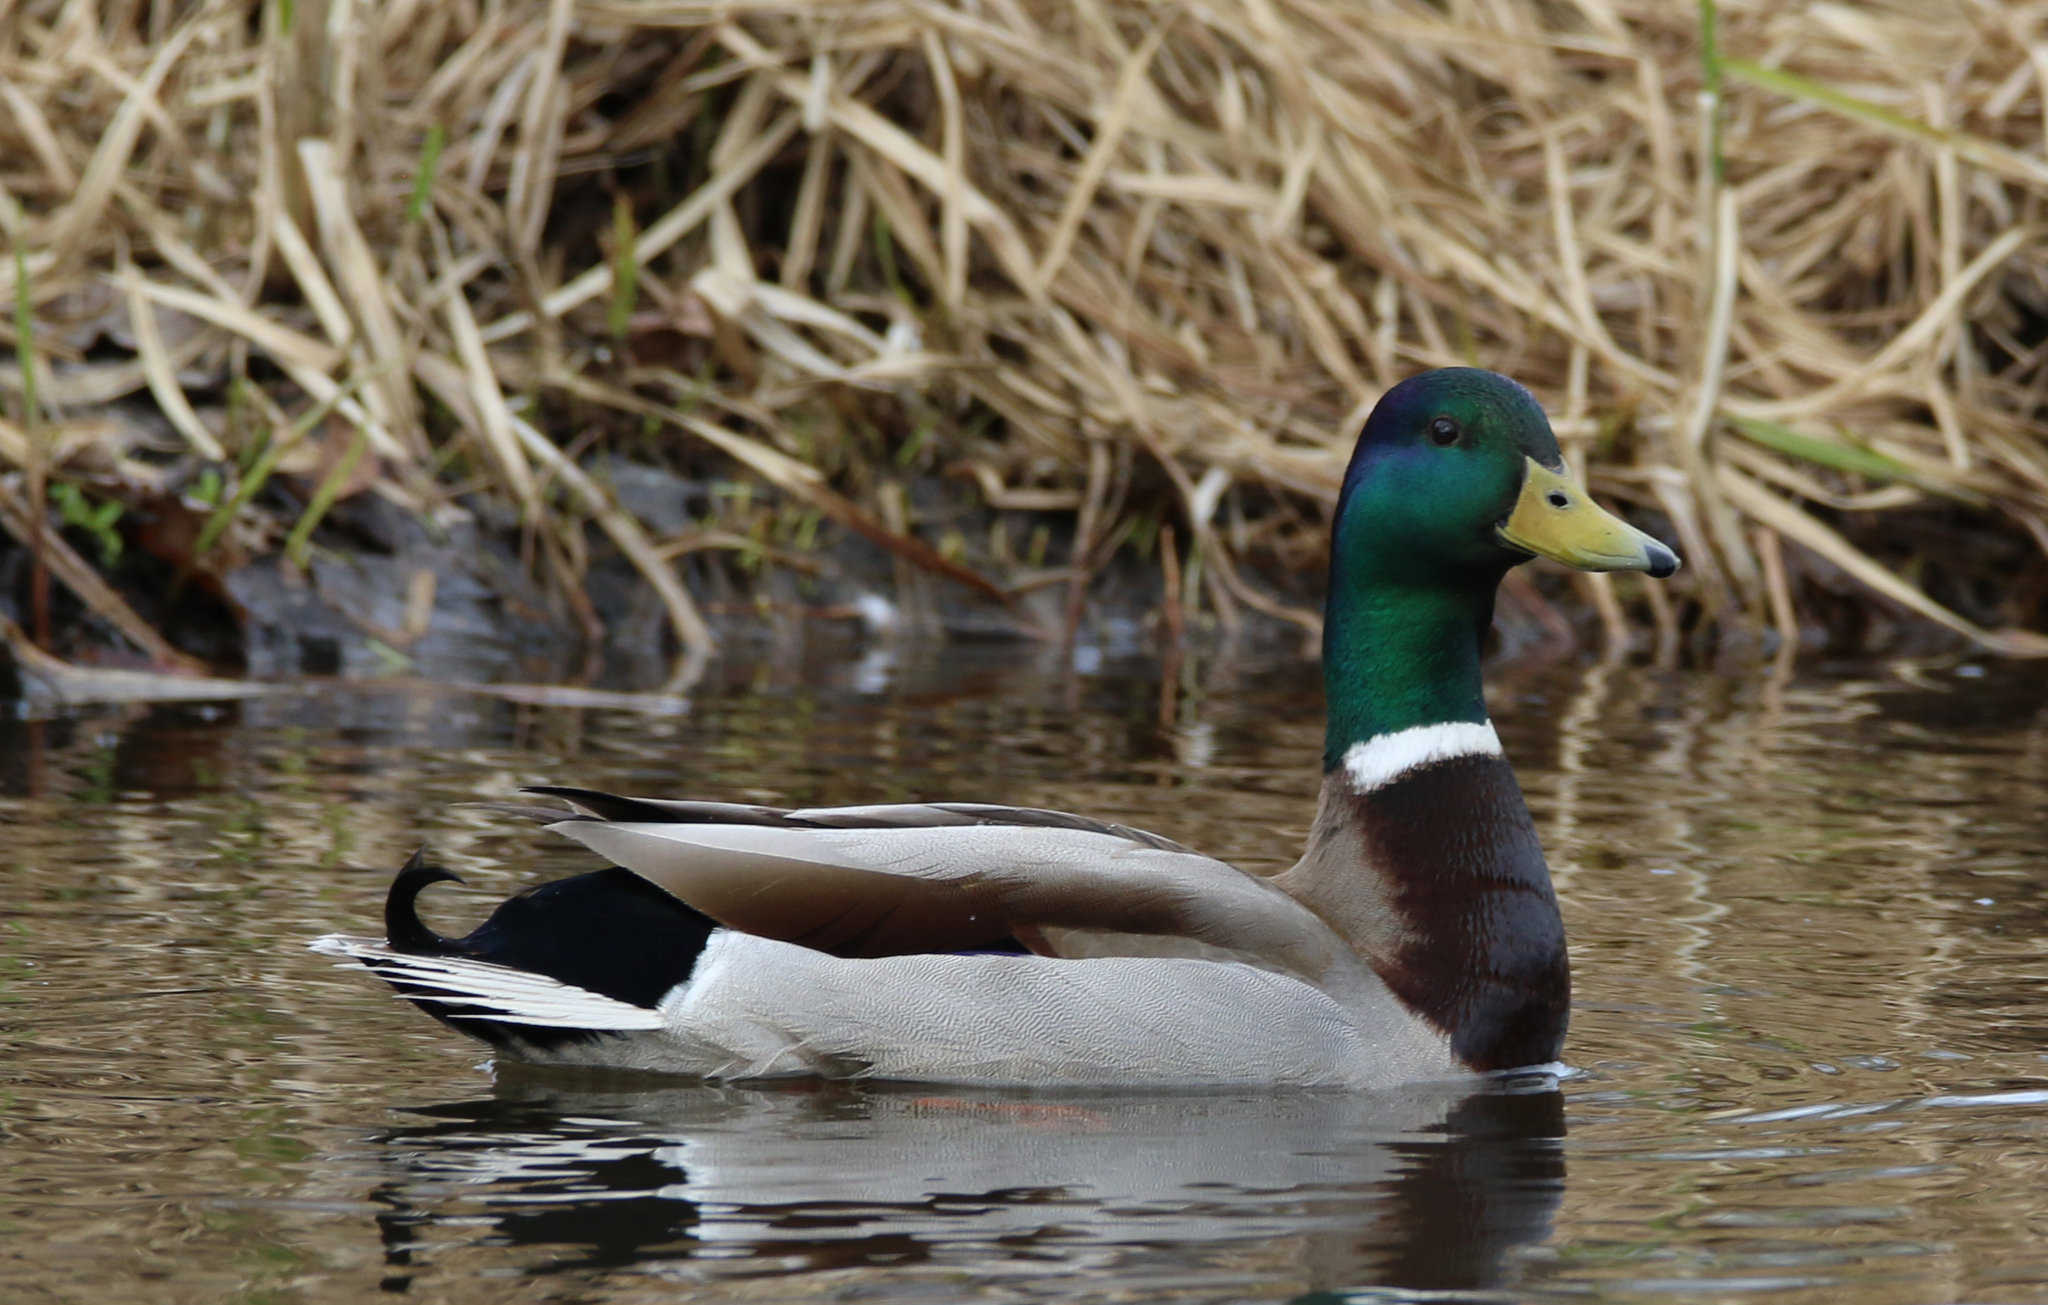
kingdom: Animalia
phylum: Chordata
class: Aves
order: Anseriformes
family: Anatidae
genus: Anas
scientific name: Anas platyrhynchos
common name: Mallard
